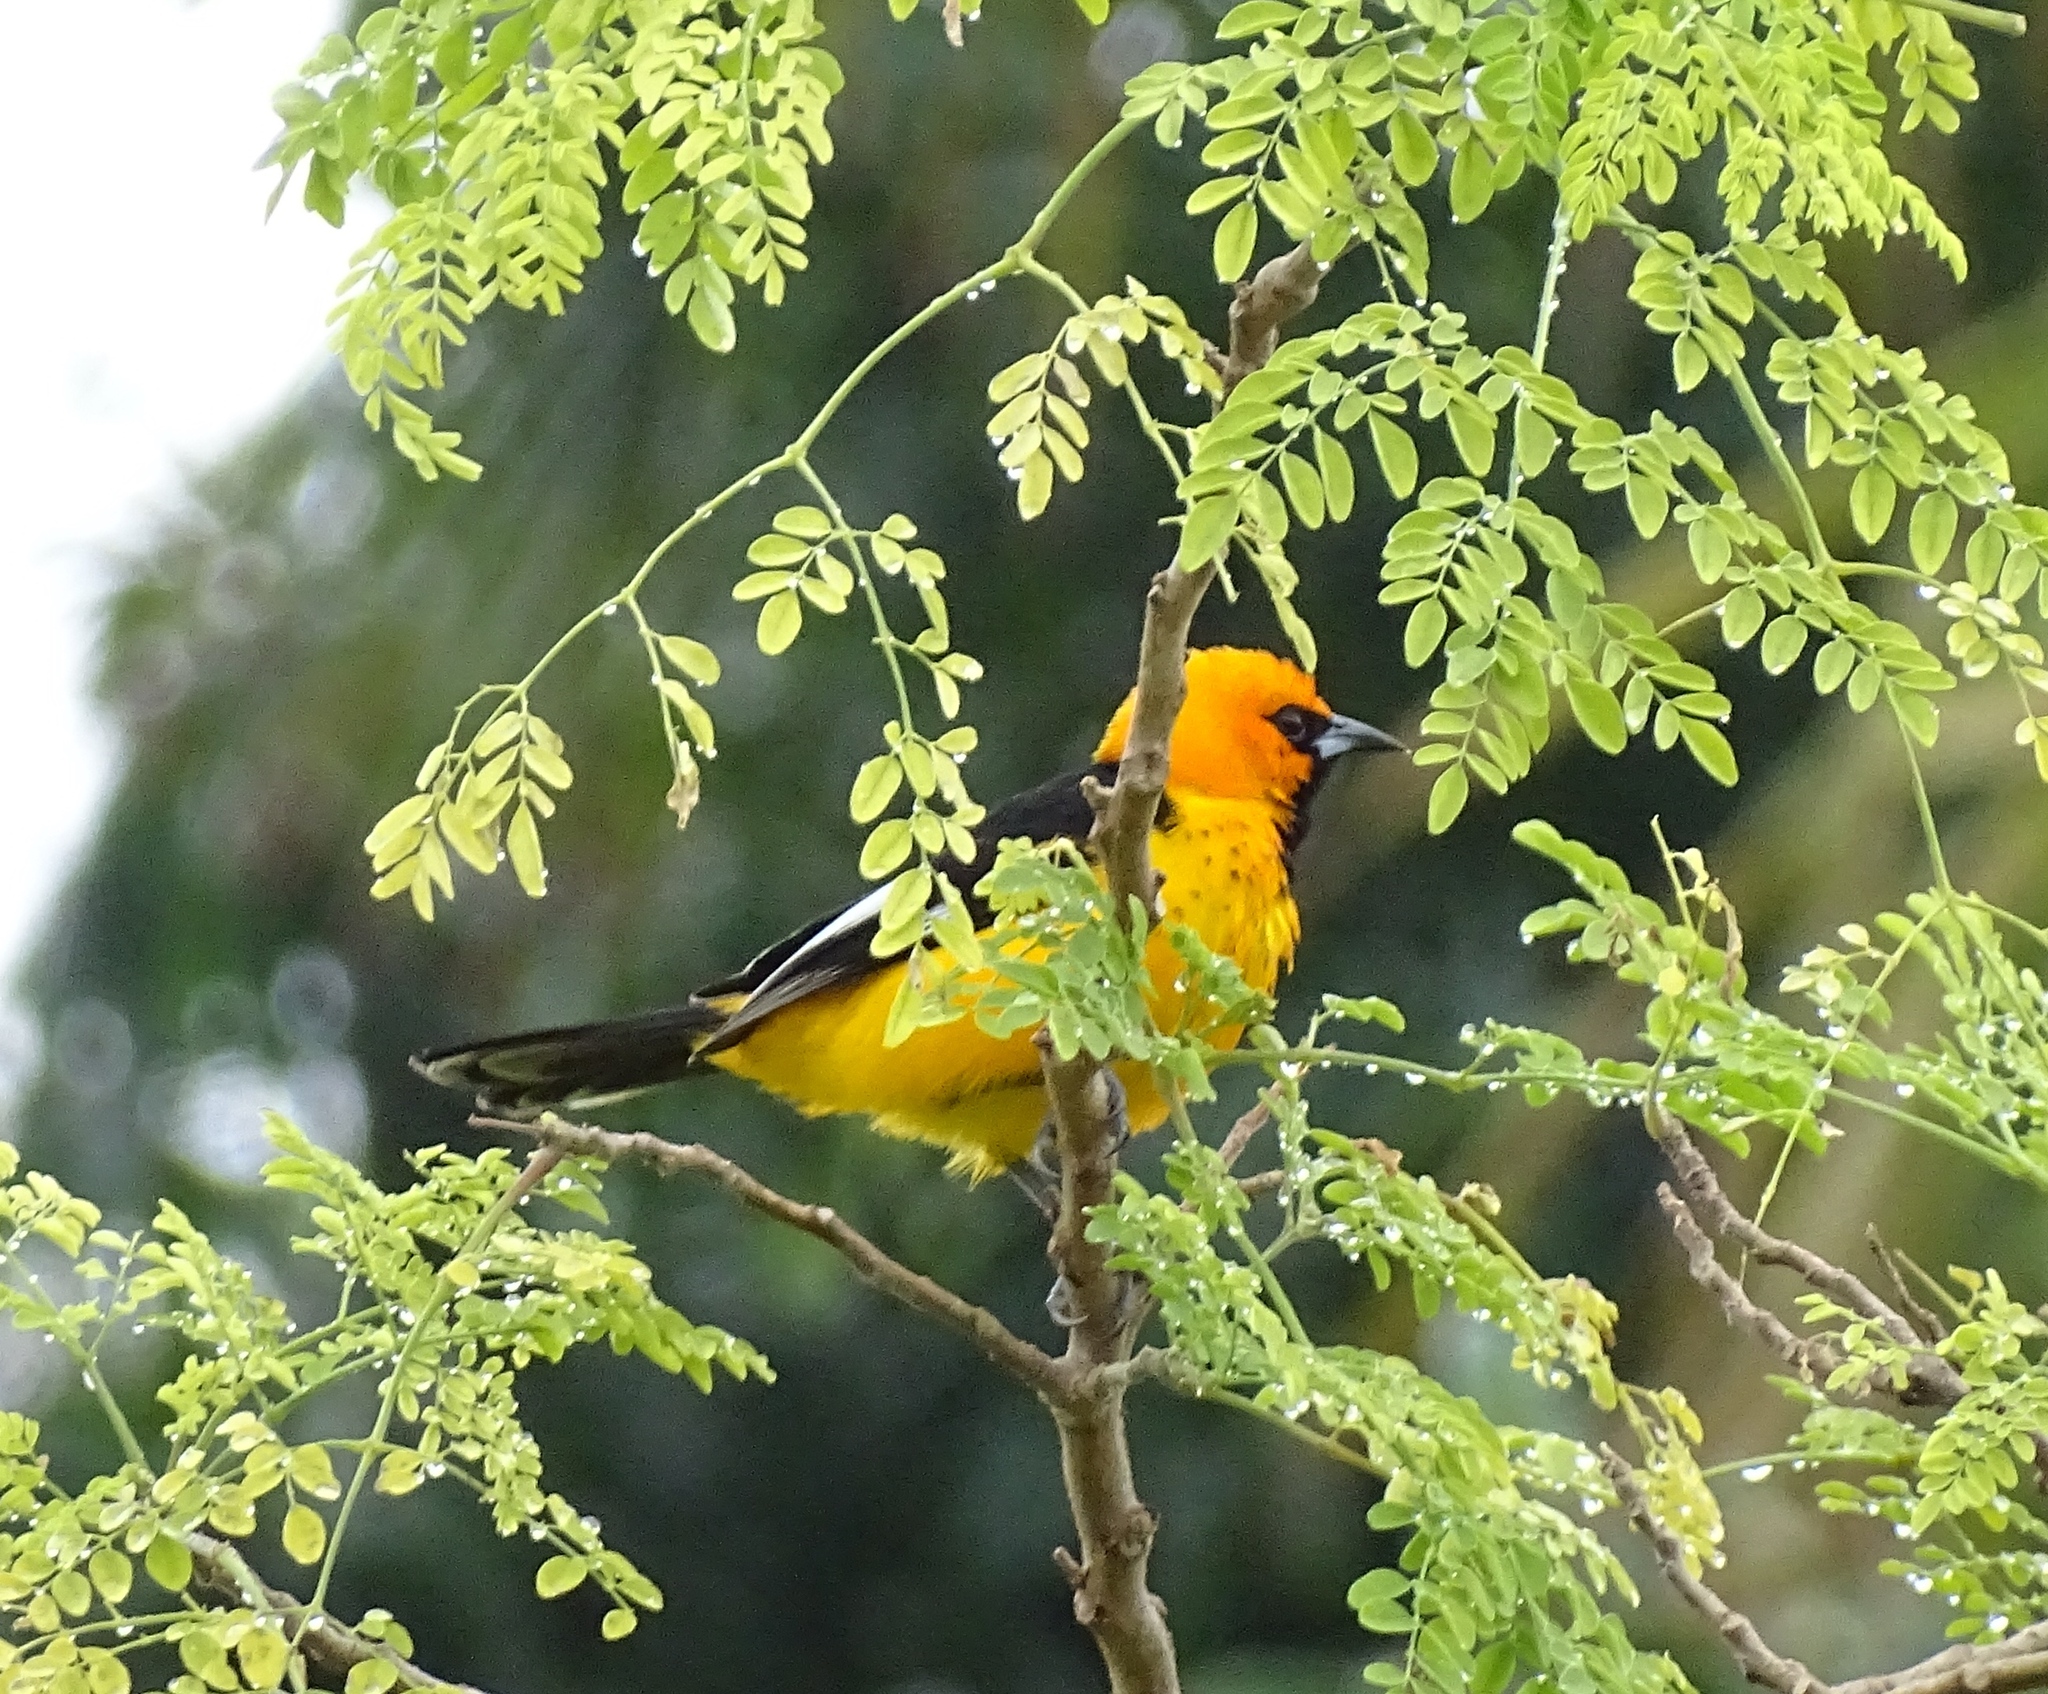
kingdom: Animalia
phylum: Chordata
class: Aves
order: Passeriformes
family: Icteridae
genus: Icterus
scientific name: Icterus pectoralis
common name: Spot-breasted oriole
